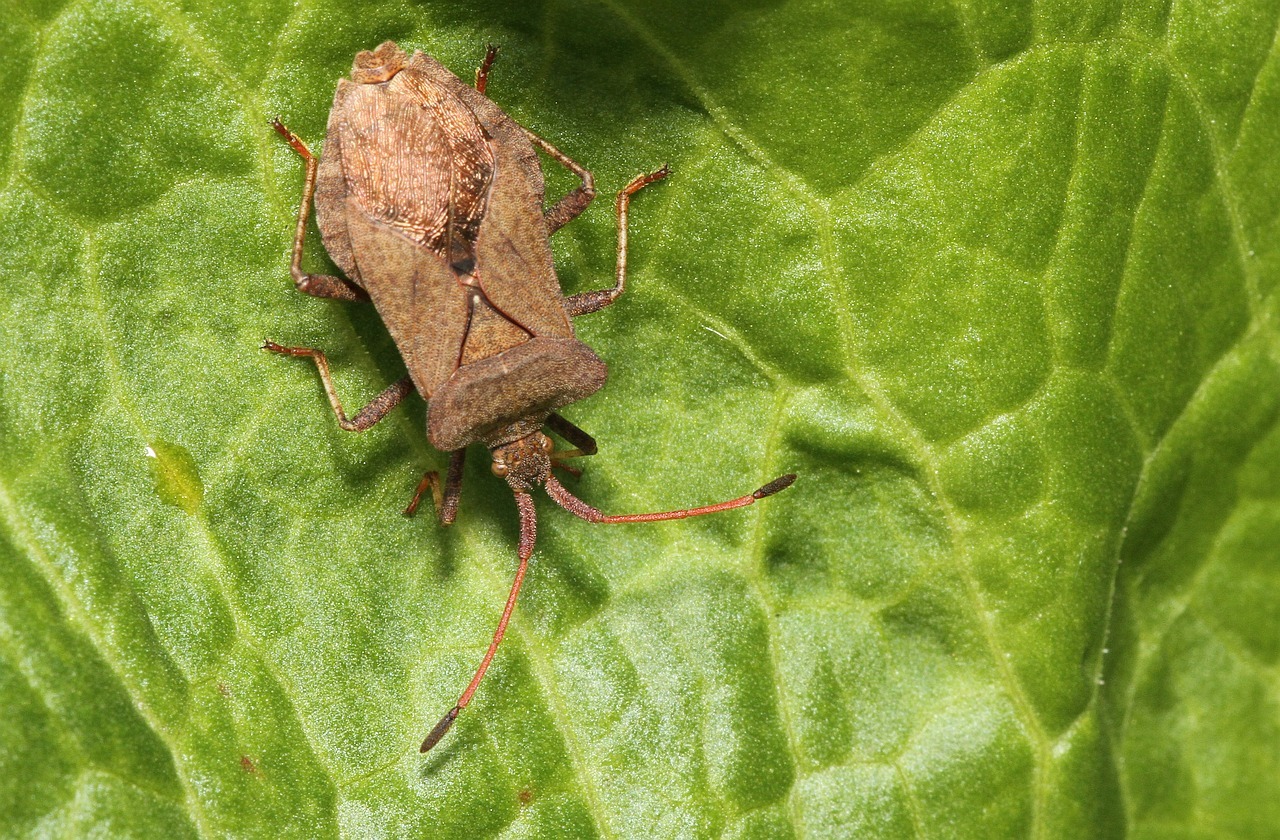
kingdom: Animalia
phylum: Arthropoda
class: Insecta
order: Hemiptera
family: Coreidae
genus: Coreus
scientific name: Coreus marginatus
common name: Dock bug
